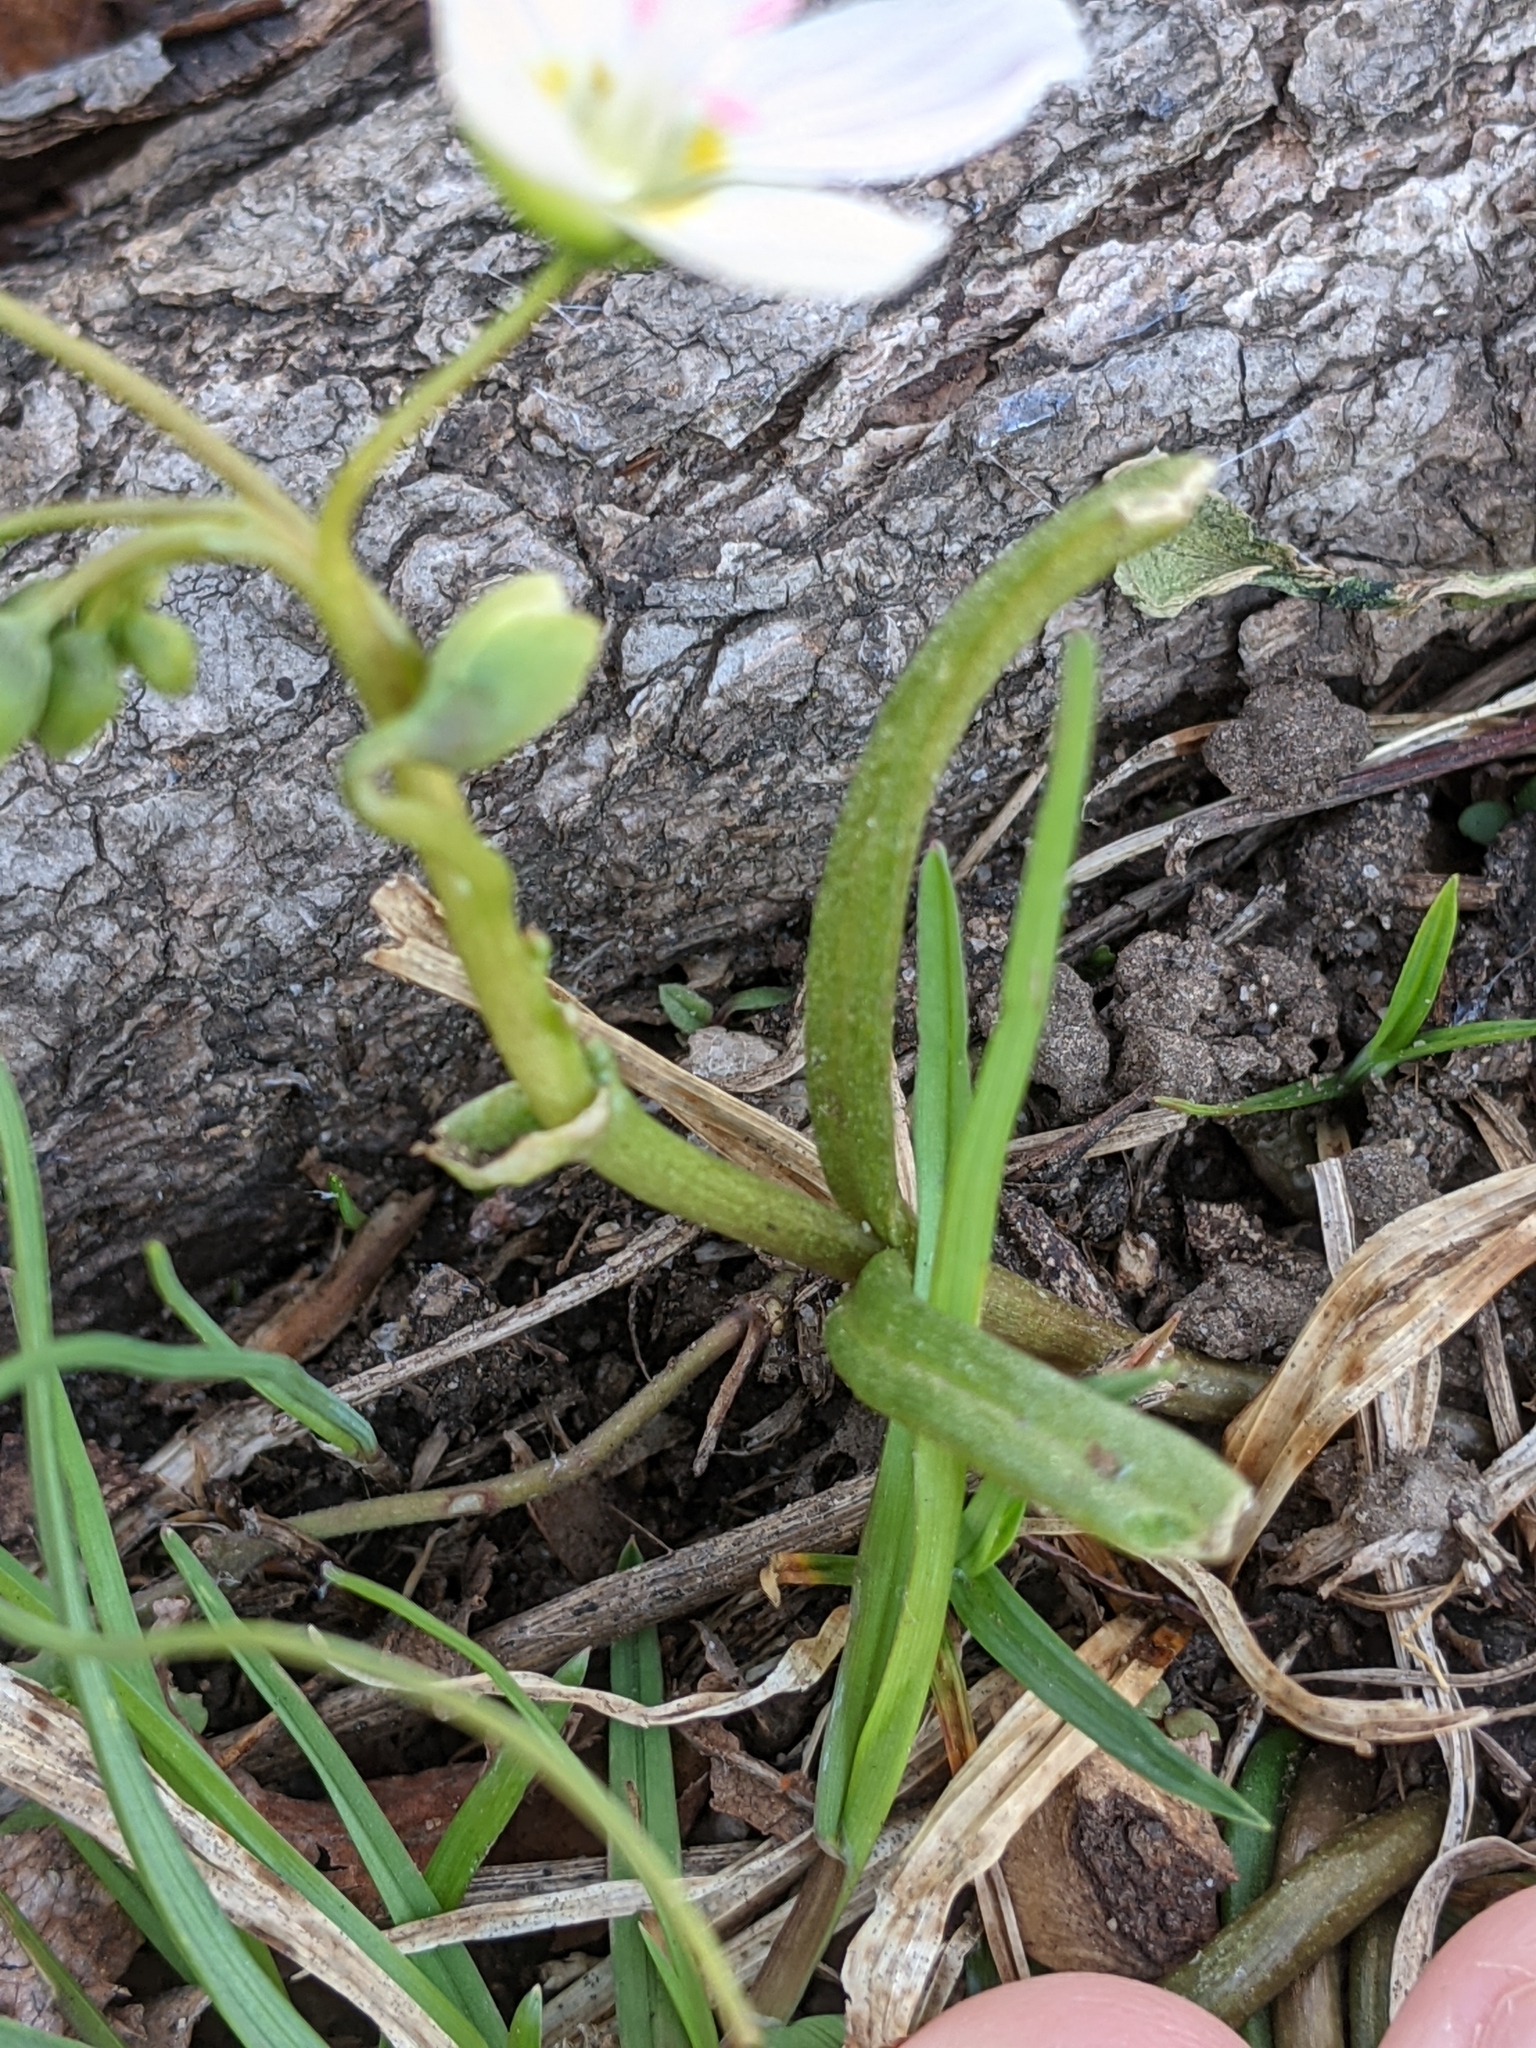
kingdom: Plantae
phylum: Tracheophyta
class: Magnoliopsida
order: Caryophyllales
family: Montiaceae
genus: Claytonia
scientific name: Claytonia virginica
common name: Virginia springbeauty
